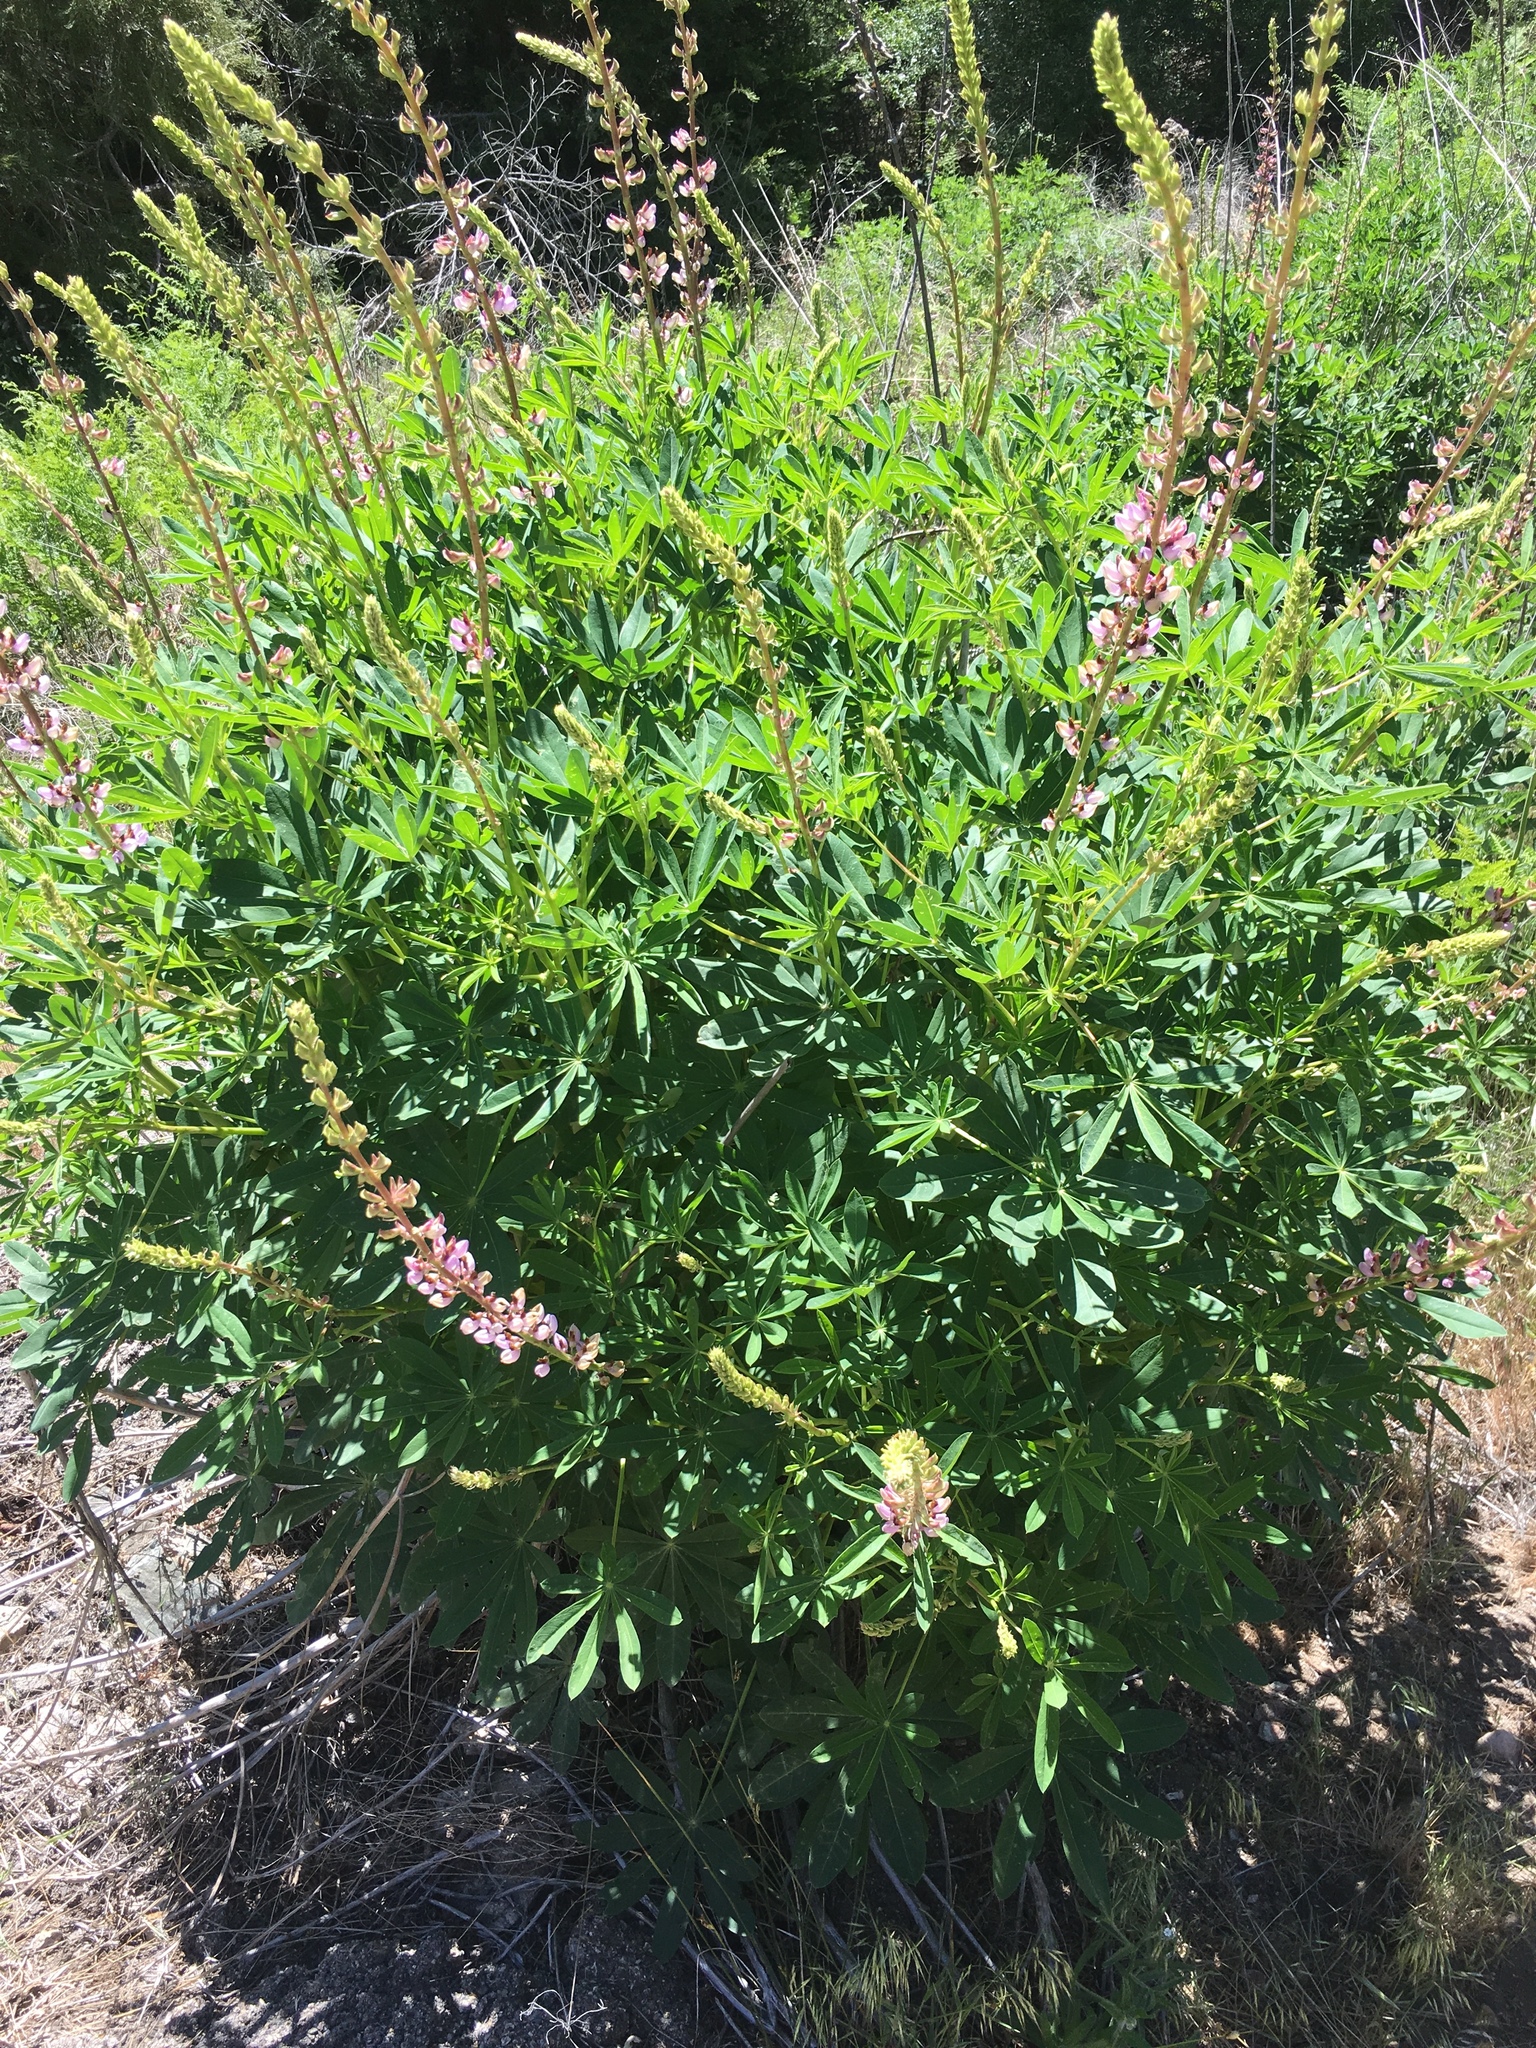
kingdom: Plantae
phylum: Tracheophyta
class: Magnoliopsida
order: Fabales
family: Fabaceae
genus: Lupinus
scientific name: Lupinus latifolius
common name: Broad-leaved lupine
